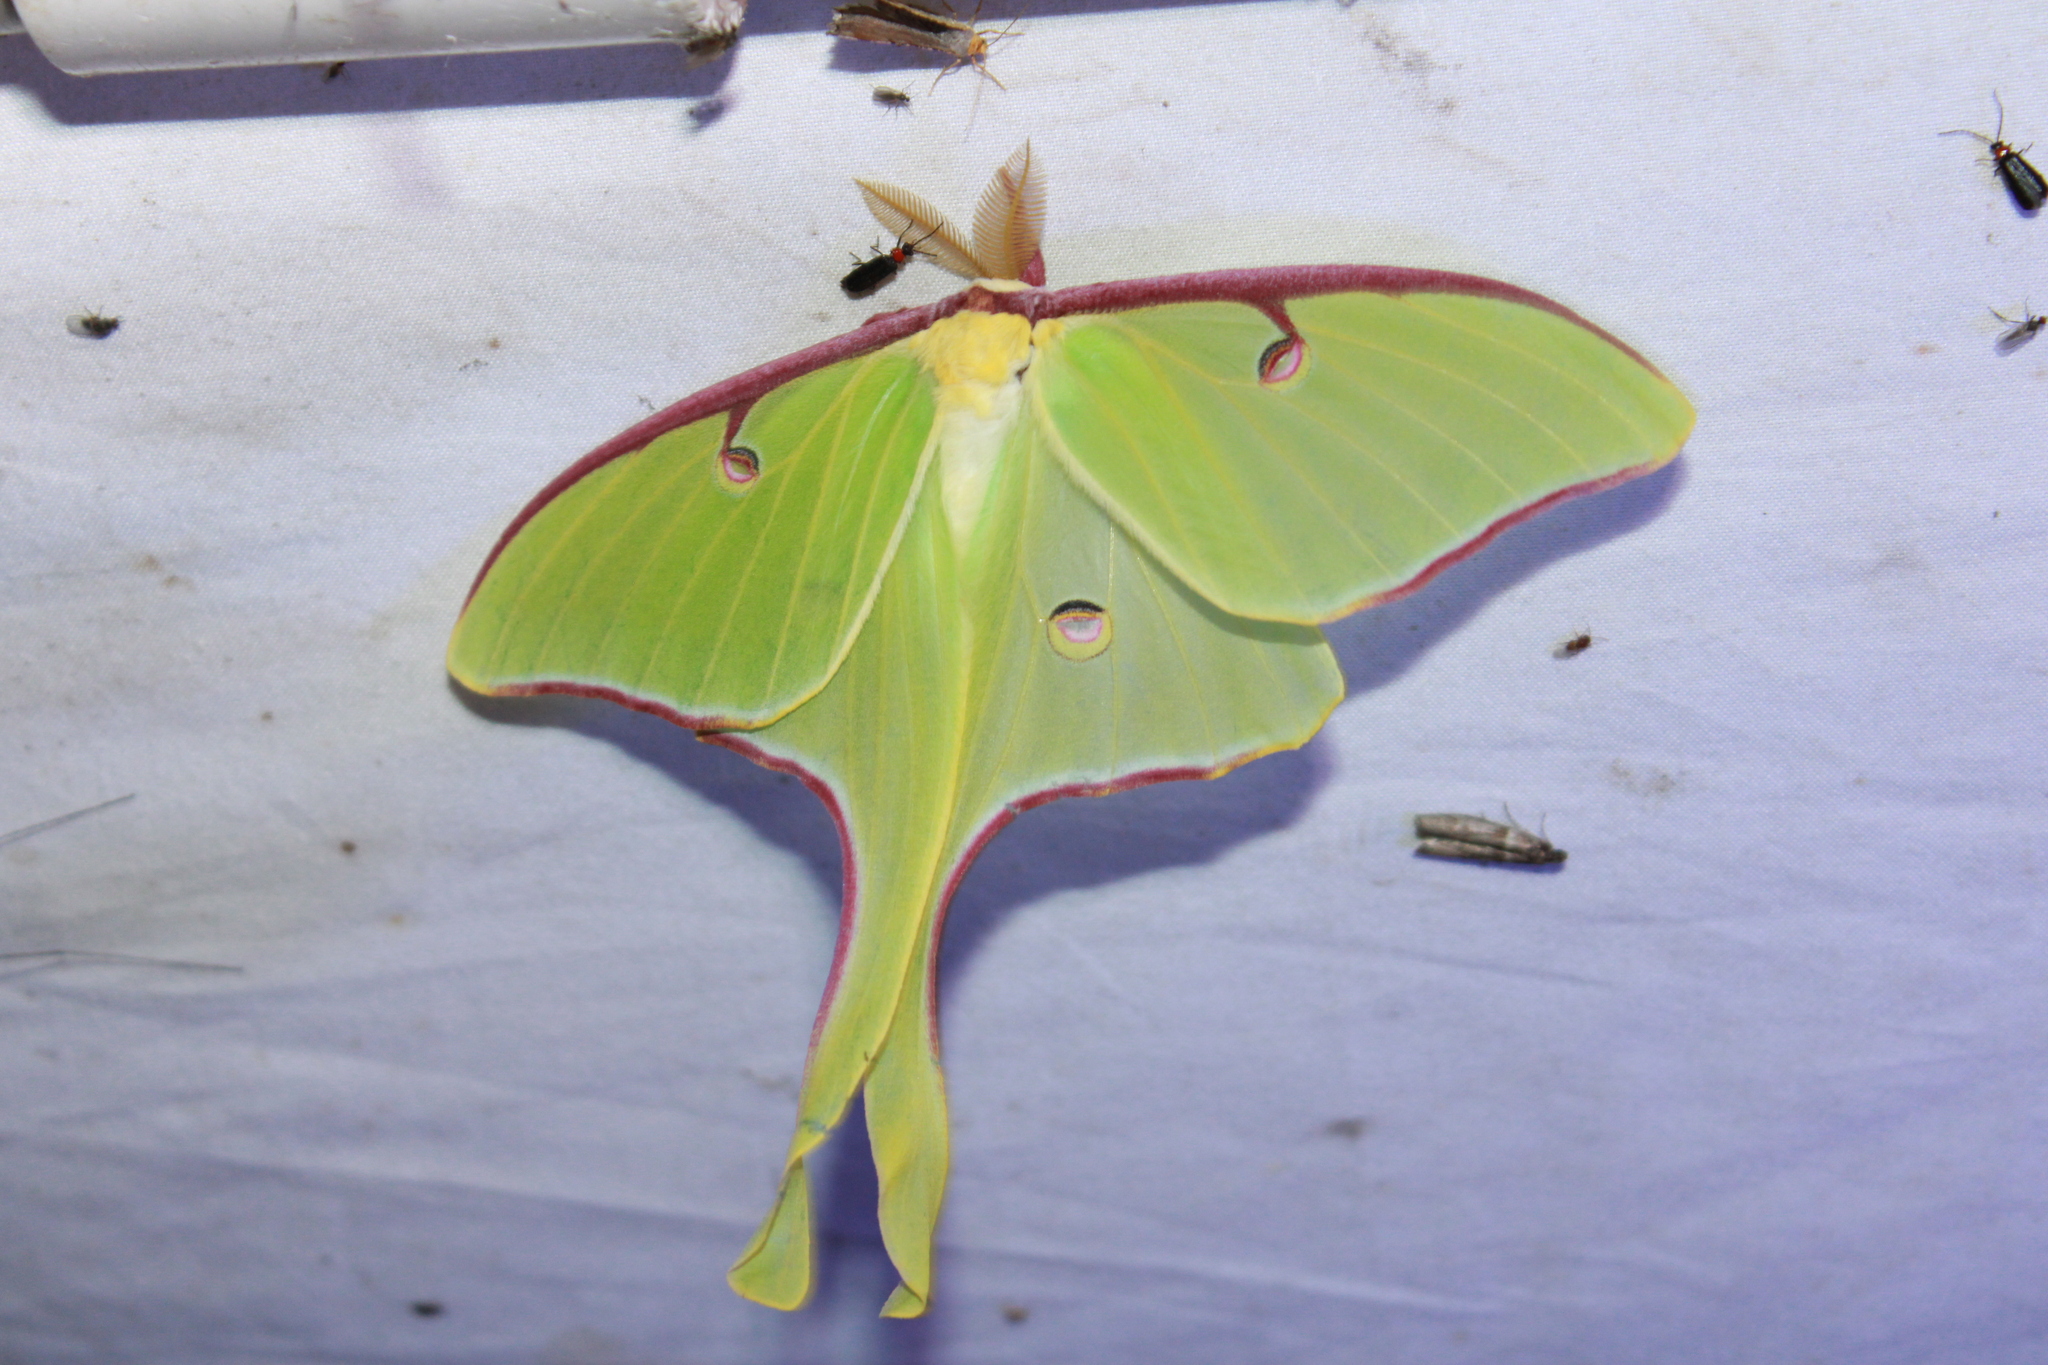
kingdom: Animalia
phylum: Arthropoda
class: Insecta
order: Lepidoptera
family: Saturniidae
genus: Actias
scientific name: Actias luna
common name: Luna moth
